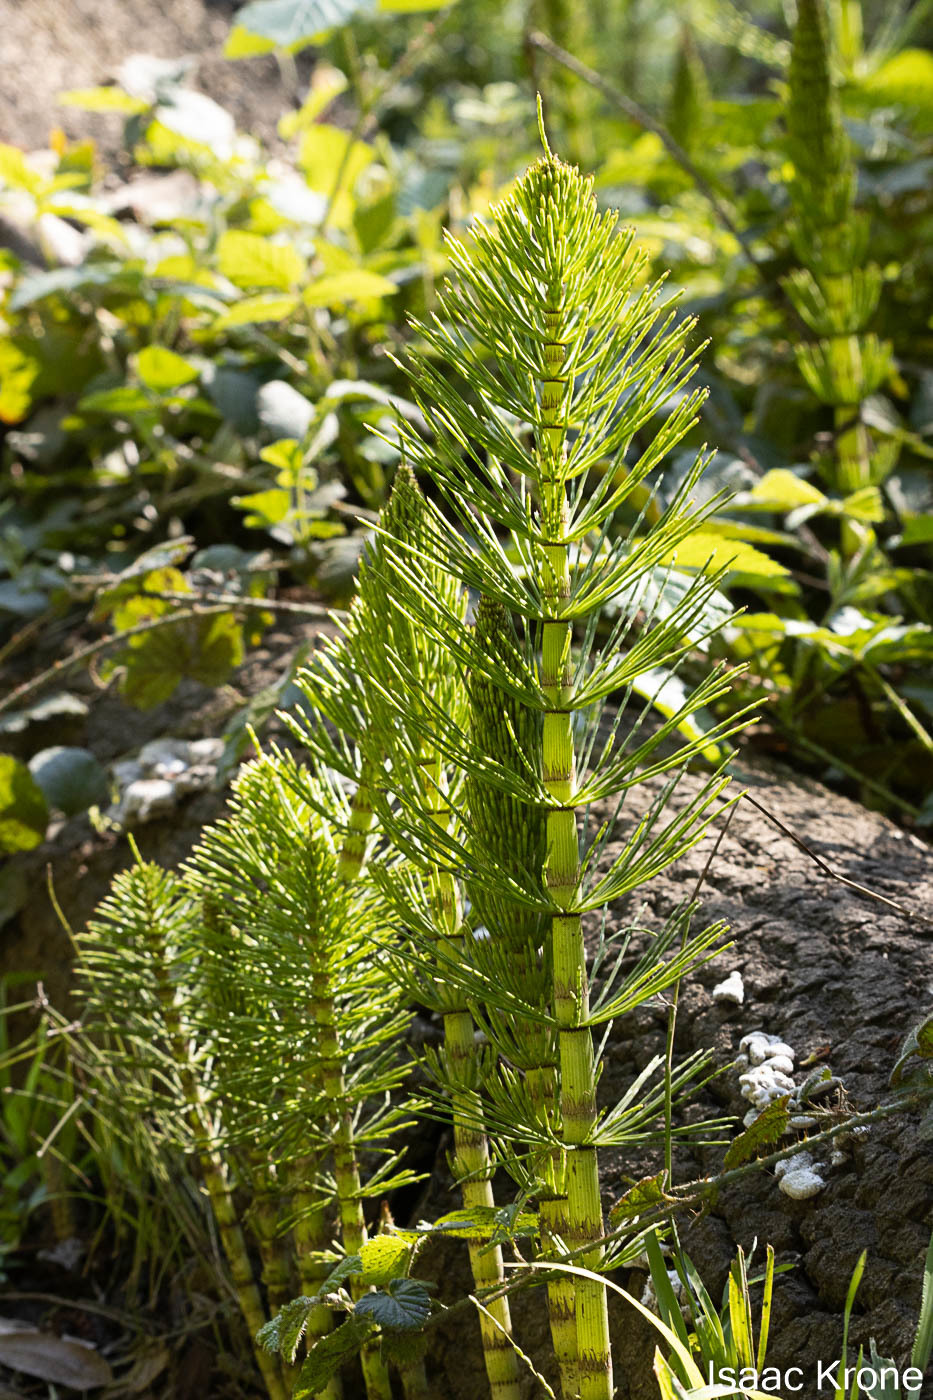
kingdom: Plantae
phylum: Tracheophyta
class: Polypodiopsida
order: Equisetales
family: Equisetaceae
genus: Equisetum
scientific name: Equisetum telmateia
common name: Great horsetail
